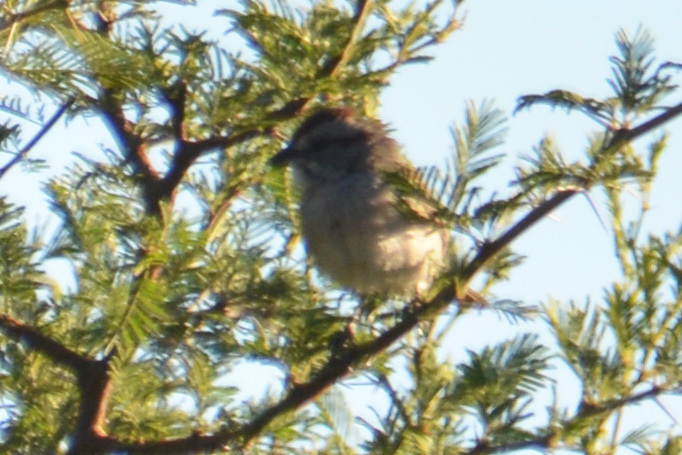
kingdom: Animalia
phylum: Chordata
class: Aves
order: Passeriformes
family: Passerellidae
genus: Rhynchospiza
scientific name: Rhynchospiza strigiceps
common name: Stripe-capped sparrow
